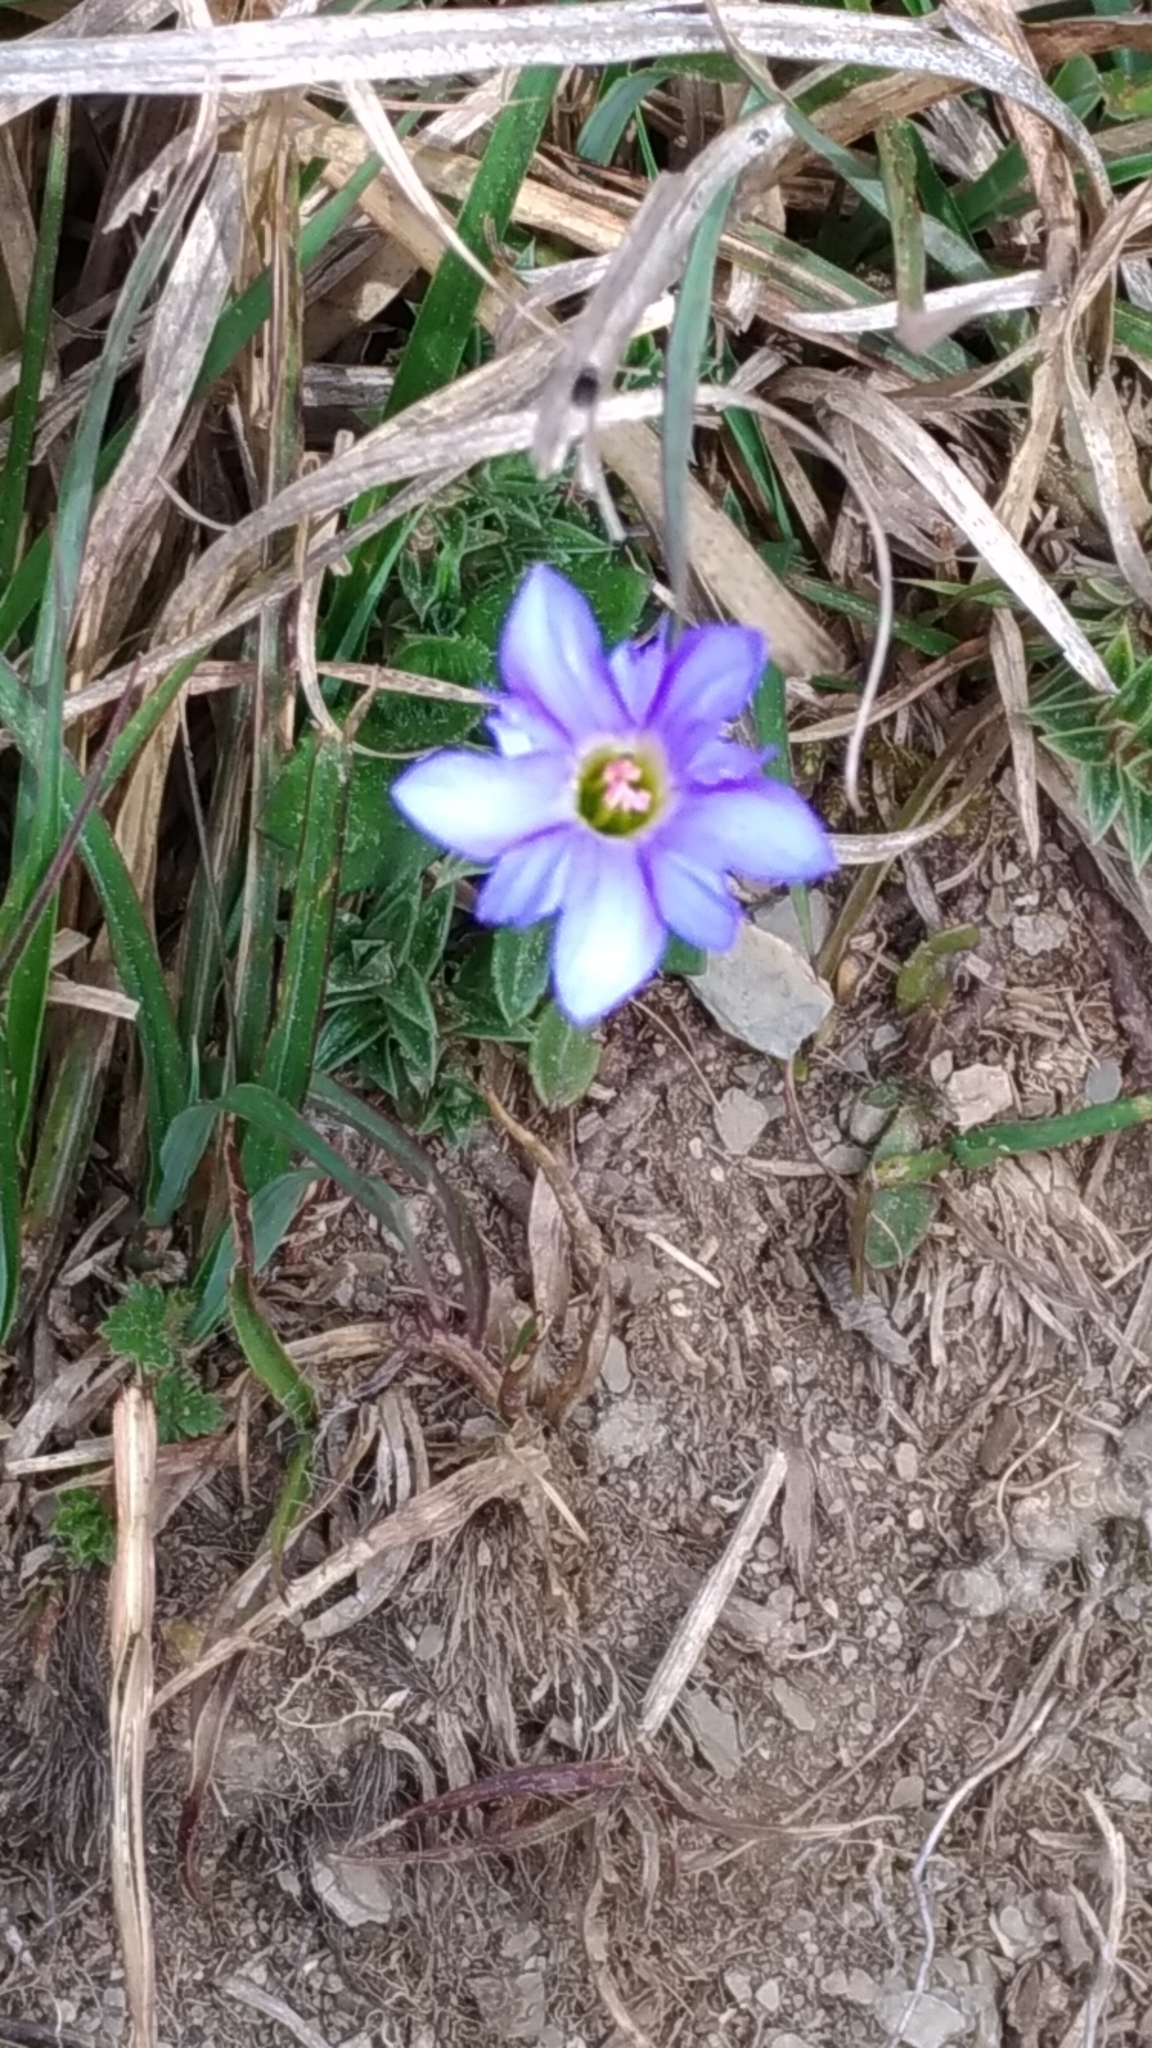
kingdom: Plantae
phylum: Tracheophyta
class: Magnoliopsida
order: Gentianales
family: Gentianaceae
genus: Gentiana
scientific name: Gentiana arisanensis
